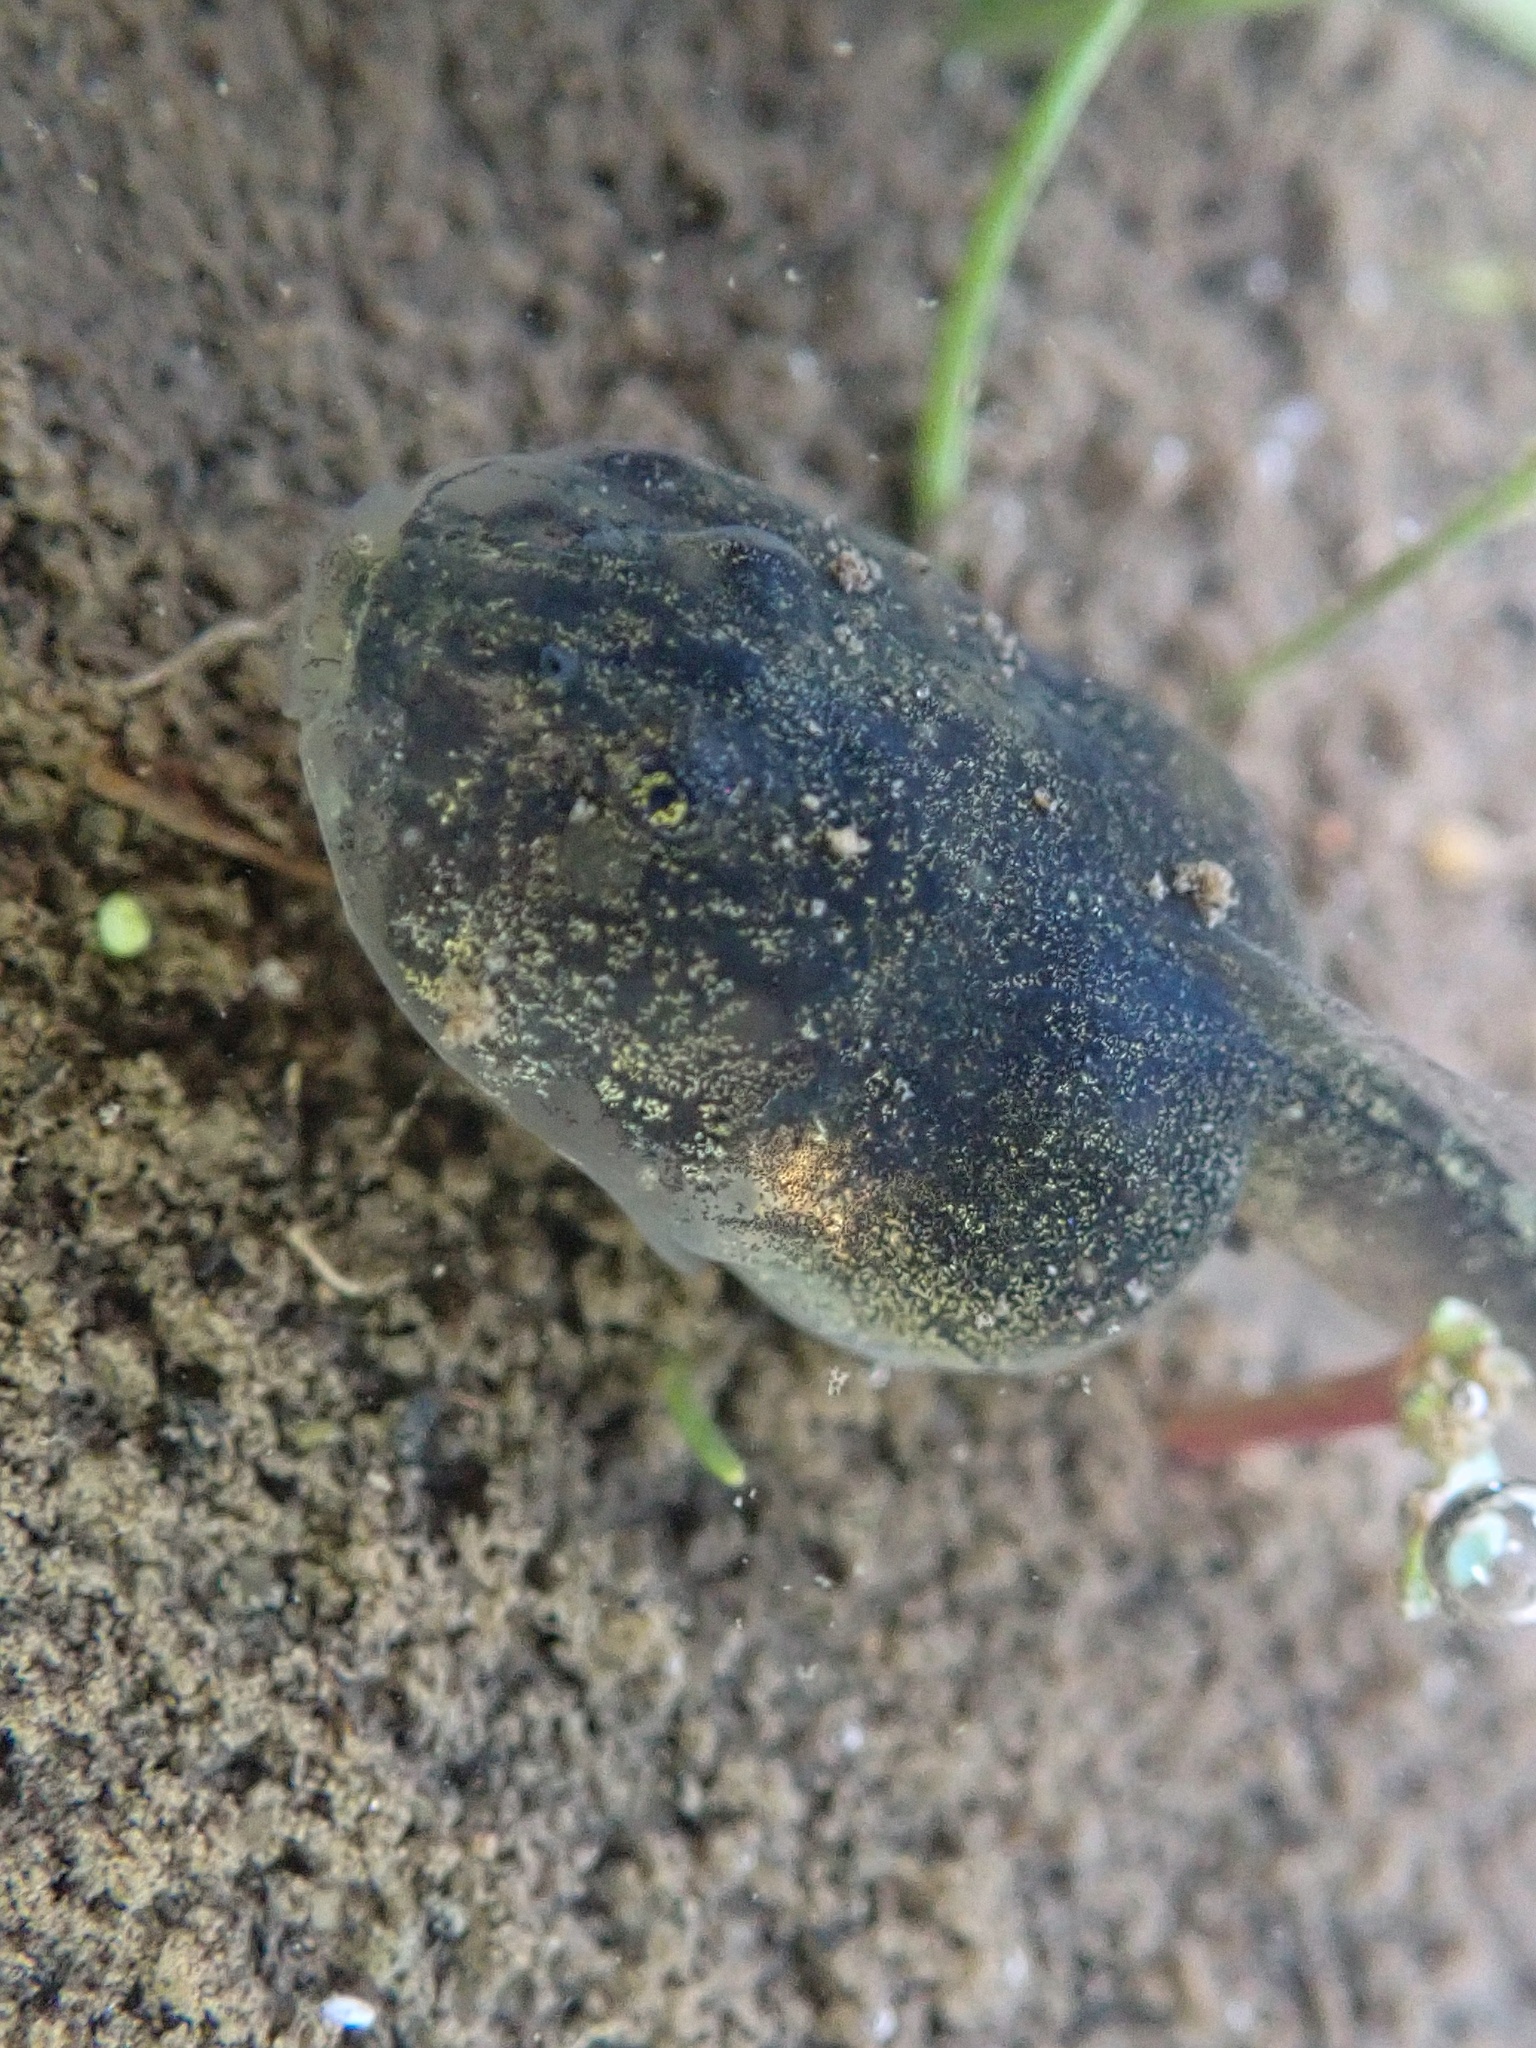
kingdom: Animalia
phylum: Chordata
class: Amphibia
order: Anura
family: Scaphiopodidae
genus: Spea
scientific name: Spea hammondii
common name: Western spadefoot toad
